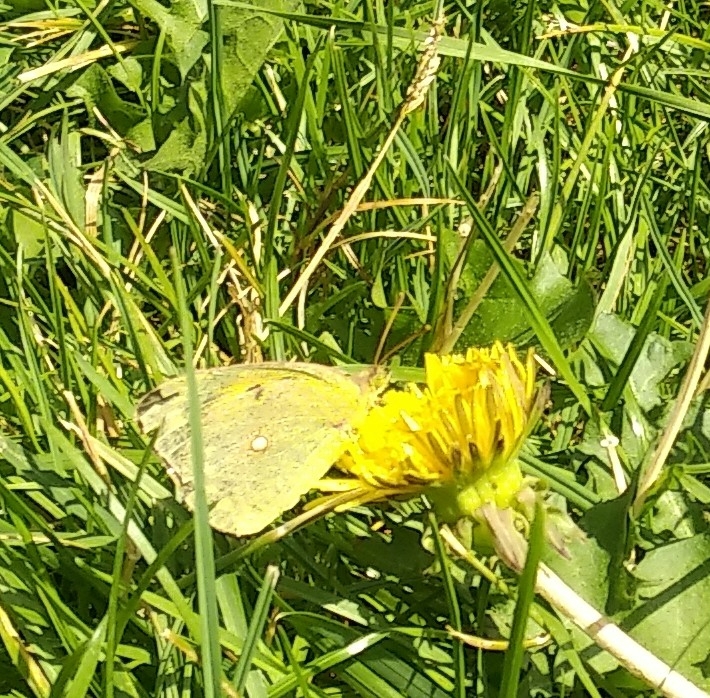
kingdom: Animalia
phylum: Arthropoda
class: Insecta
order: Lepidoptera
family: Pieridae
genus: Colias
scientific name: Colias croceus
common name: Clouded yellow
